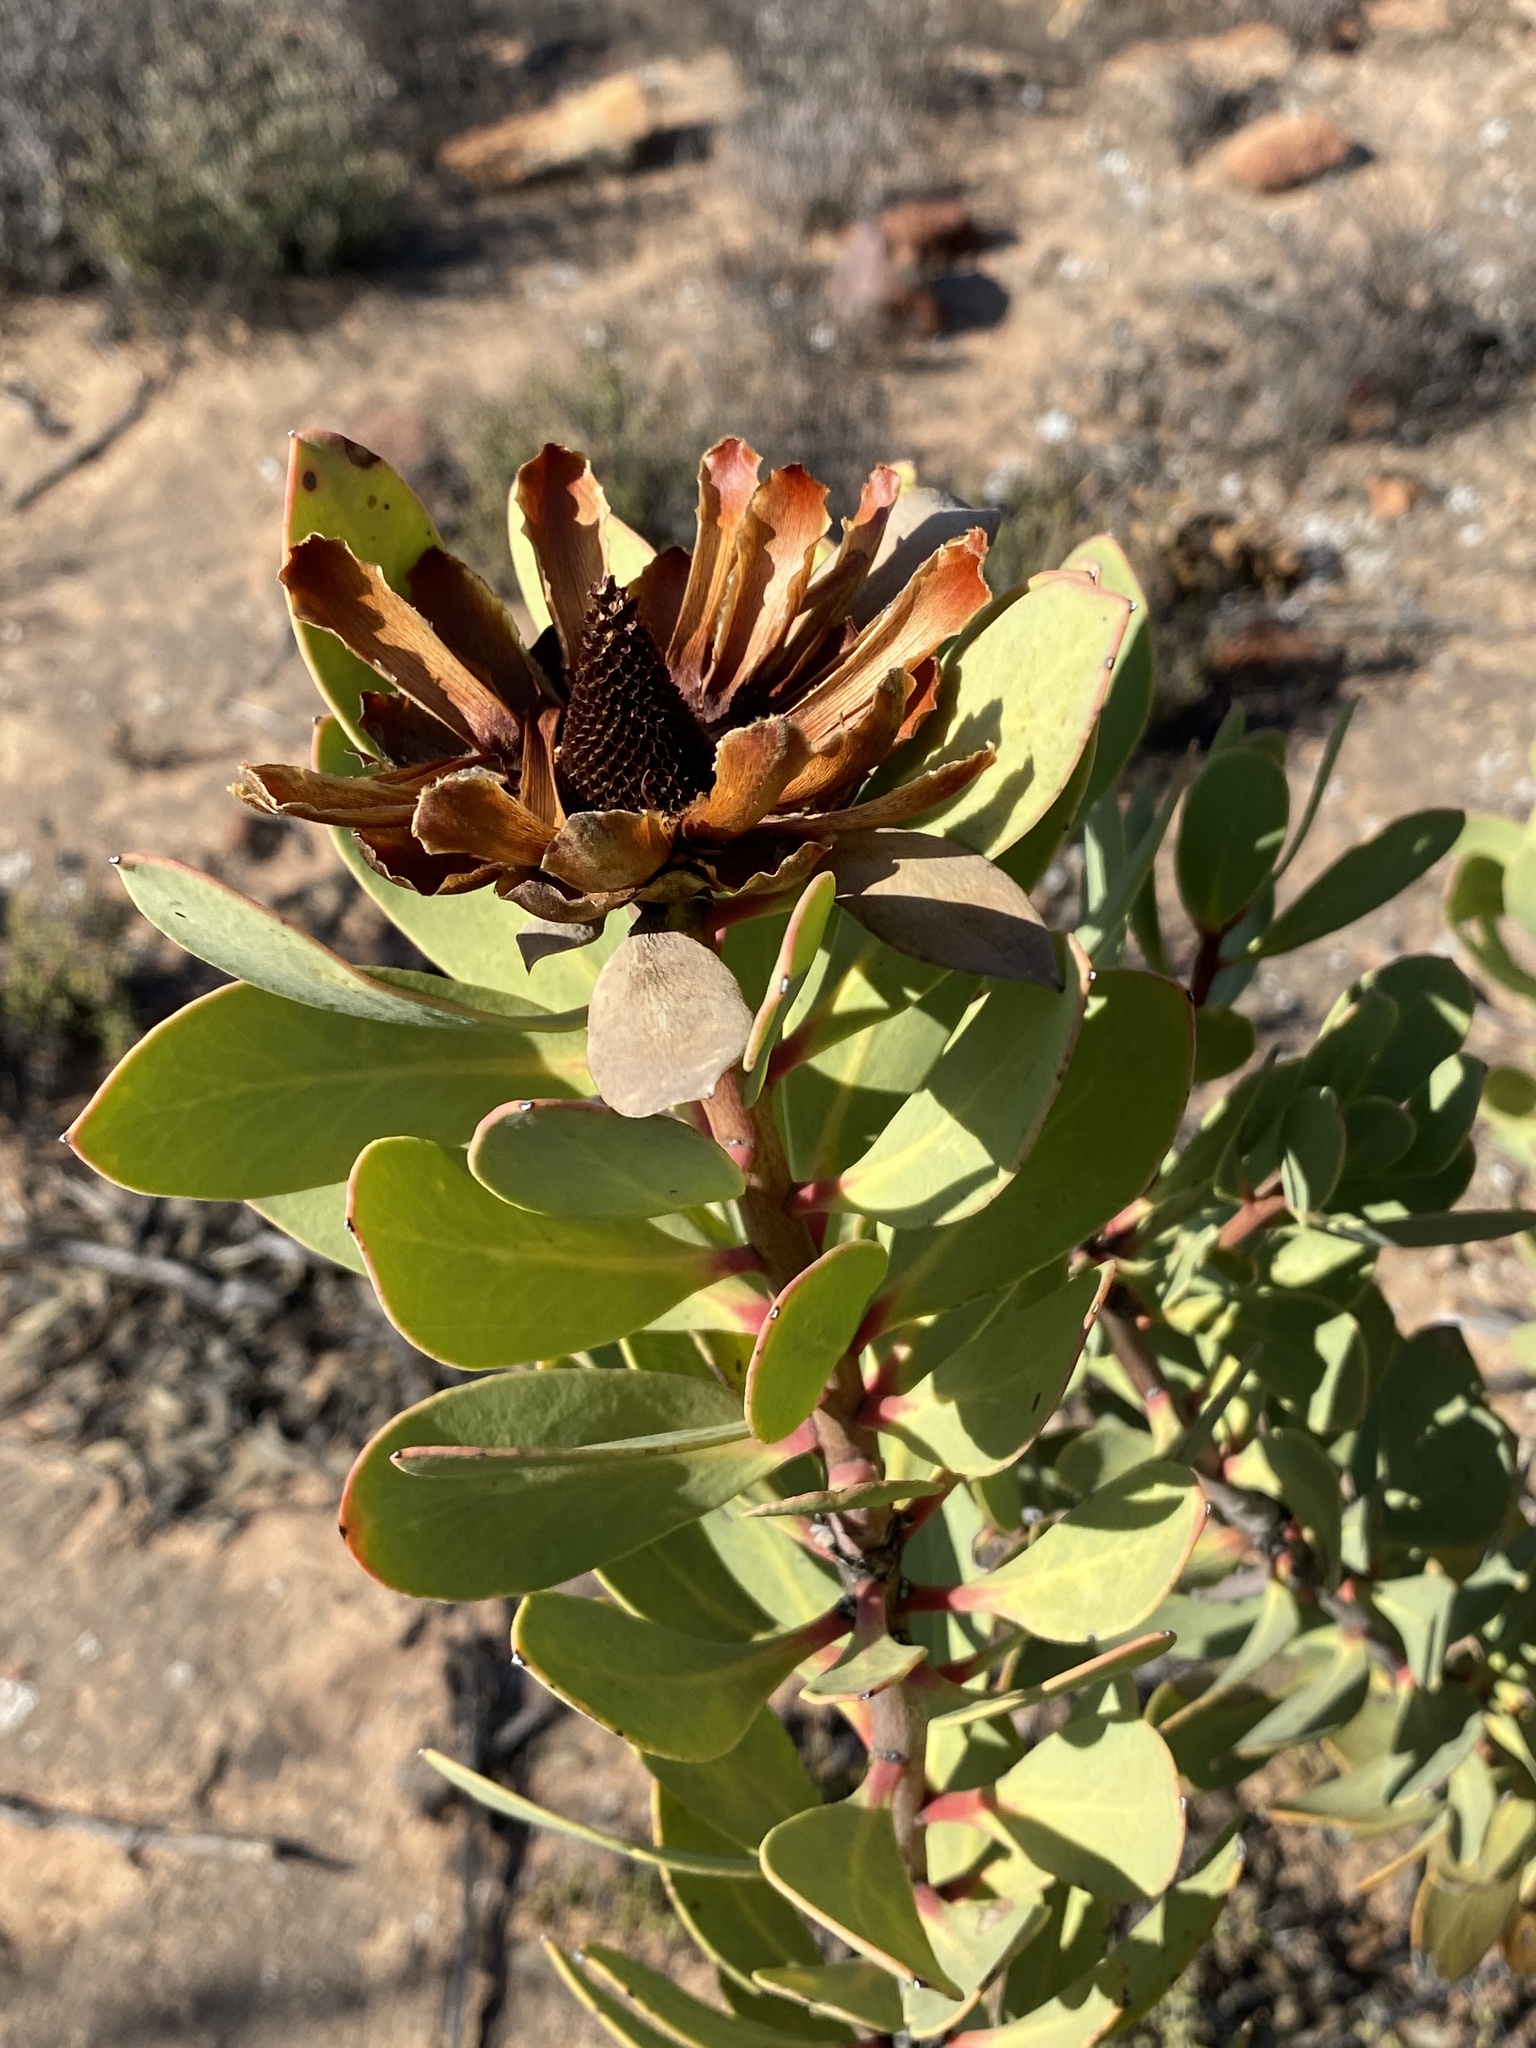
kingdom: Plantae
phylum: Tracheophyta
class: Magnoliopsida
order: Proteales
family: Proteaceae
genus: Protea
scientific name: Protea glabra
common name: Chestnut sugarbush
